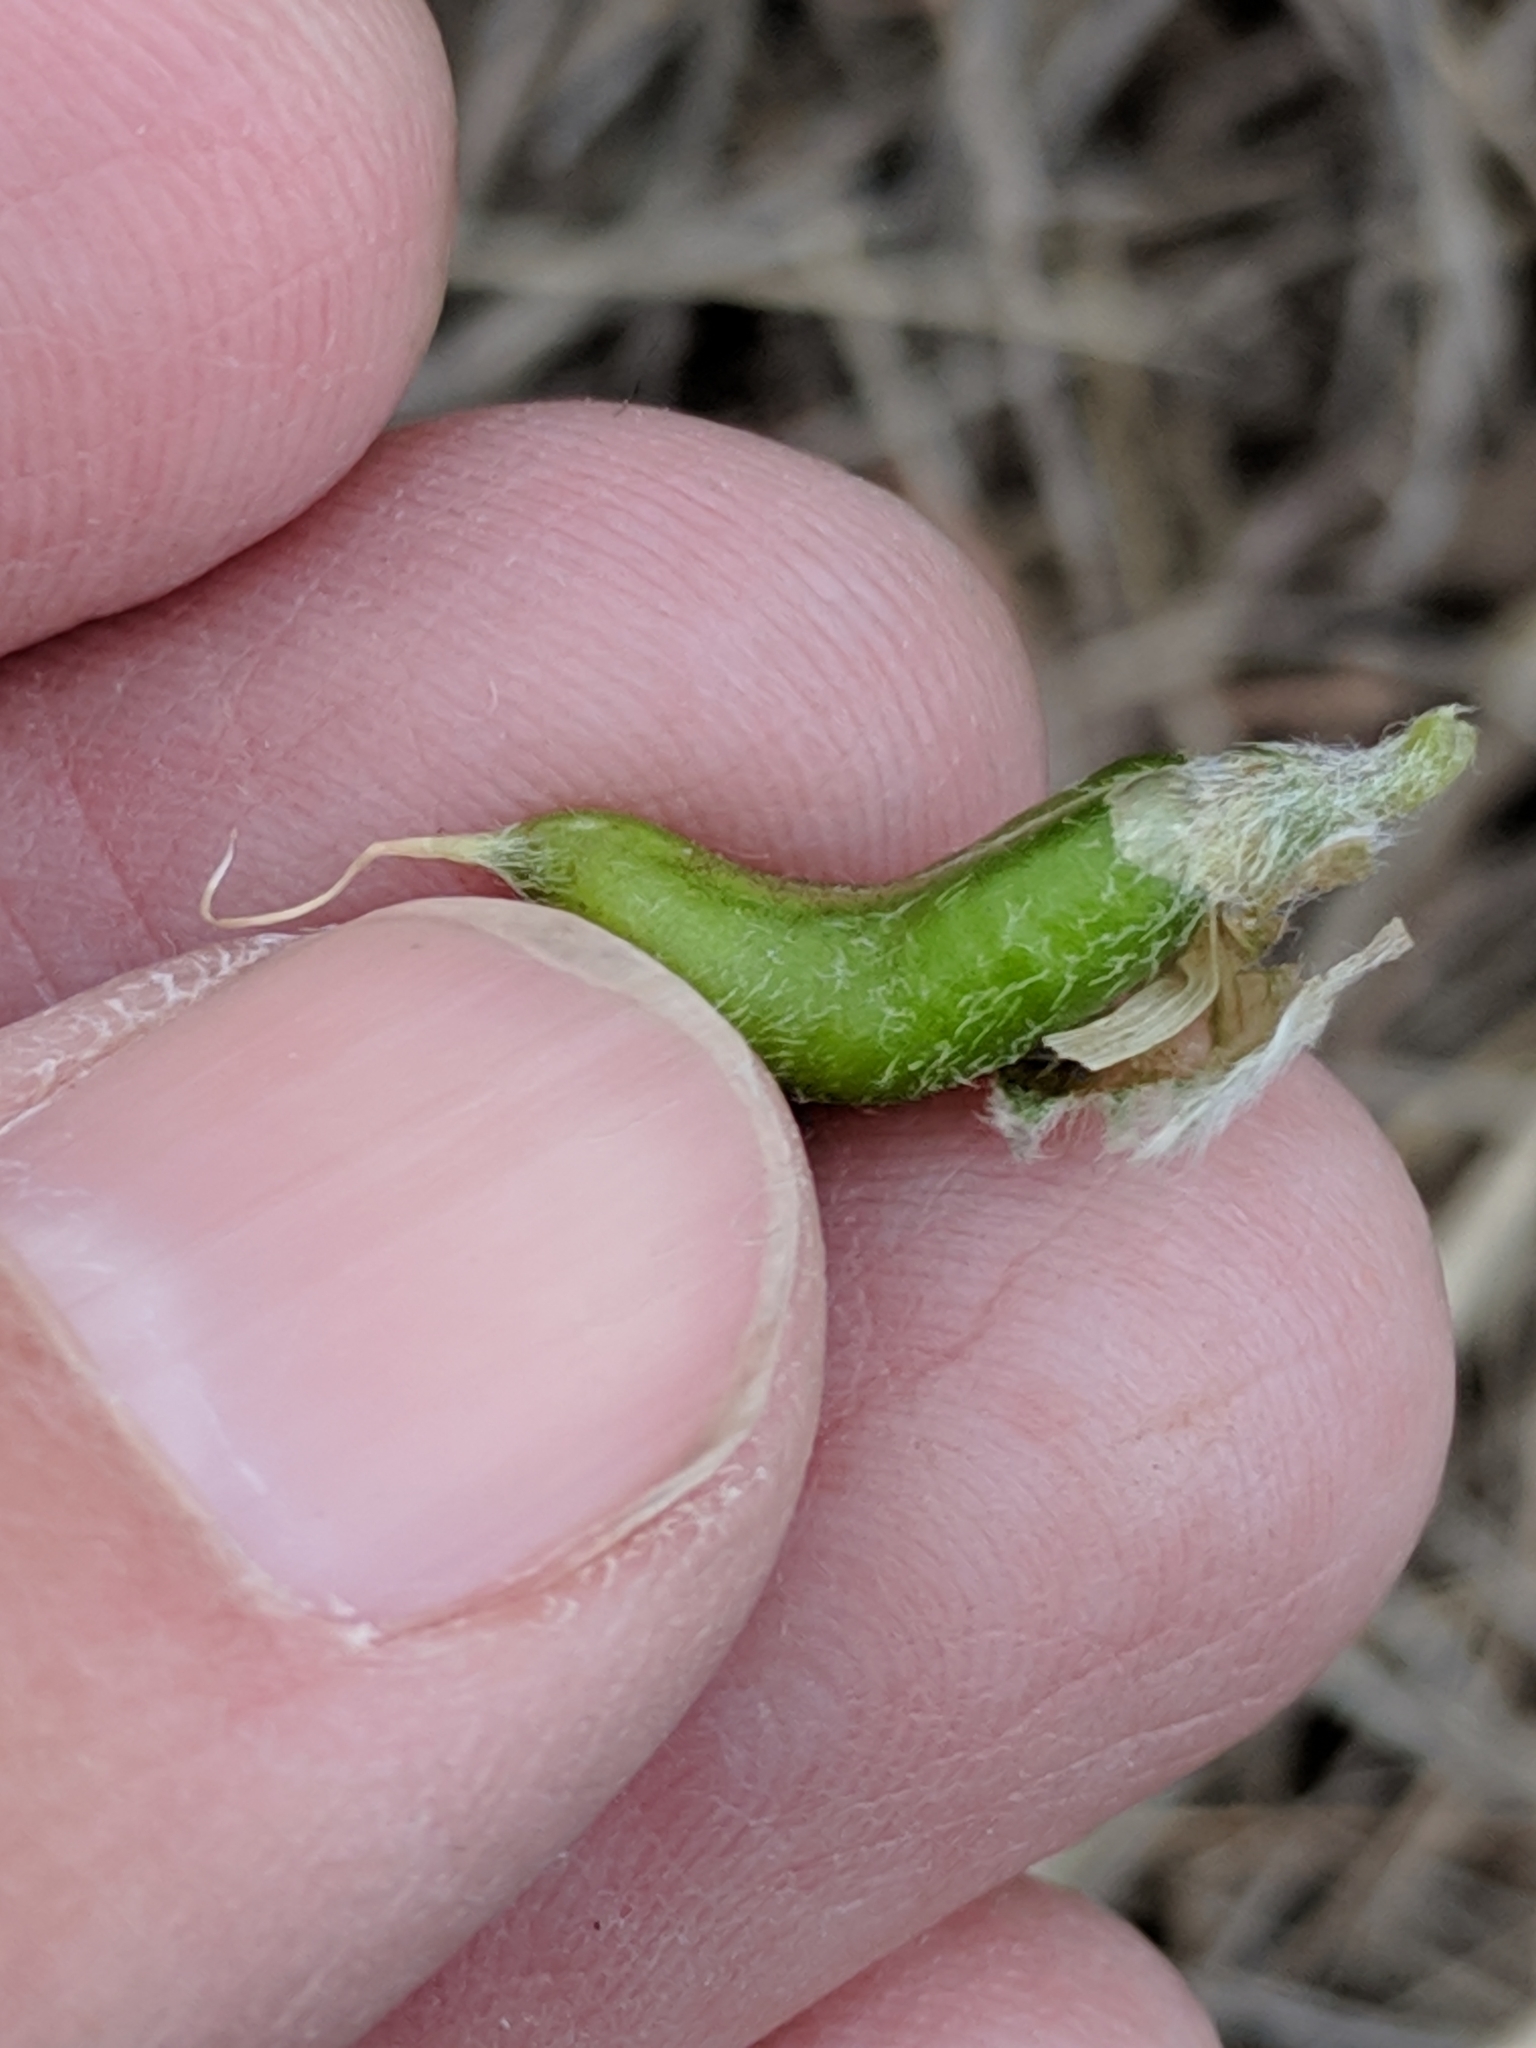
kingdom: Plantae
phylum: Tracheophyta
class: Magnoliopsida
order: Fabales
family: Fabaceae
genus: Astragalus
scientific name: Astragalus mollissimus
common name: Woolly locoweed
